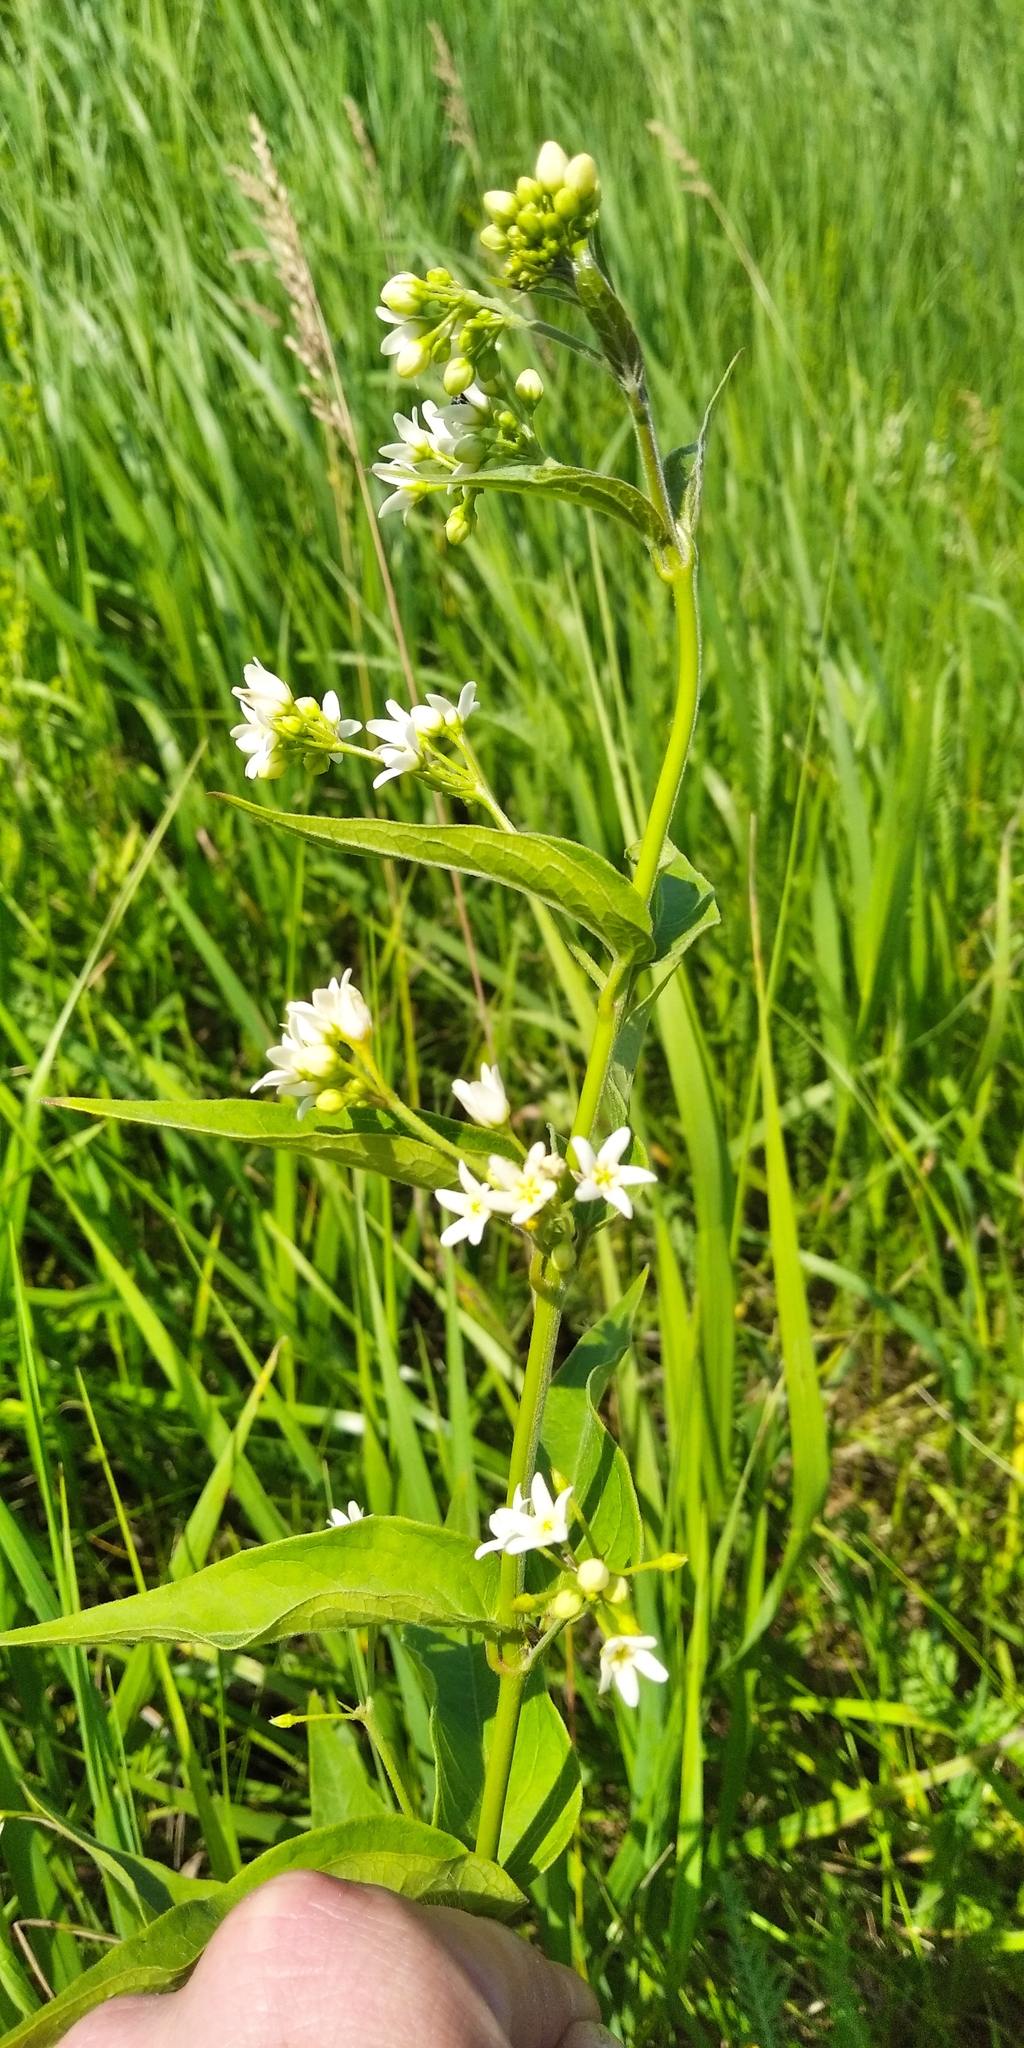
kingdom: Plantae
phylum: Tracheophyta
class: Magnoliopsida
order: Gentianales
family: Apocynaceae
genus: Vincetoxicum
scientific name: Vincetoxicum hirundinaria
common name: White swallowwort
